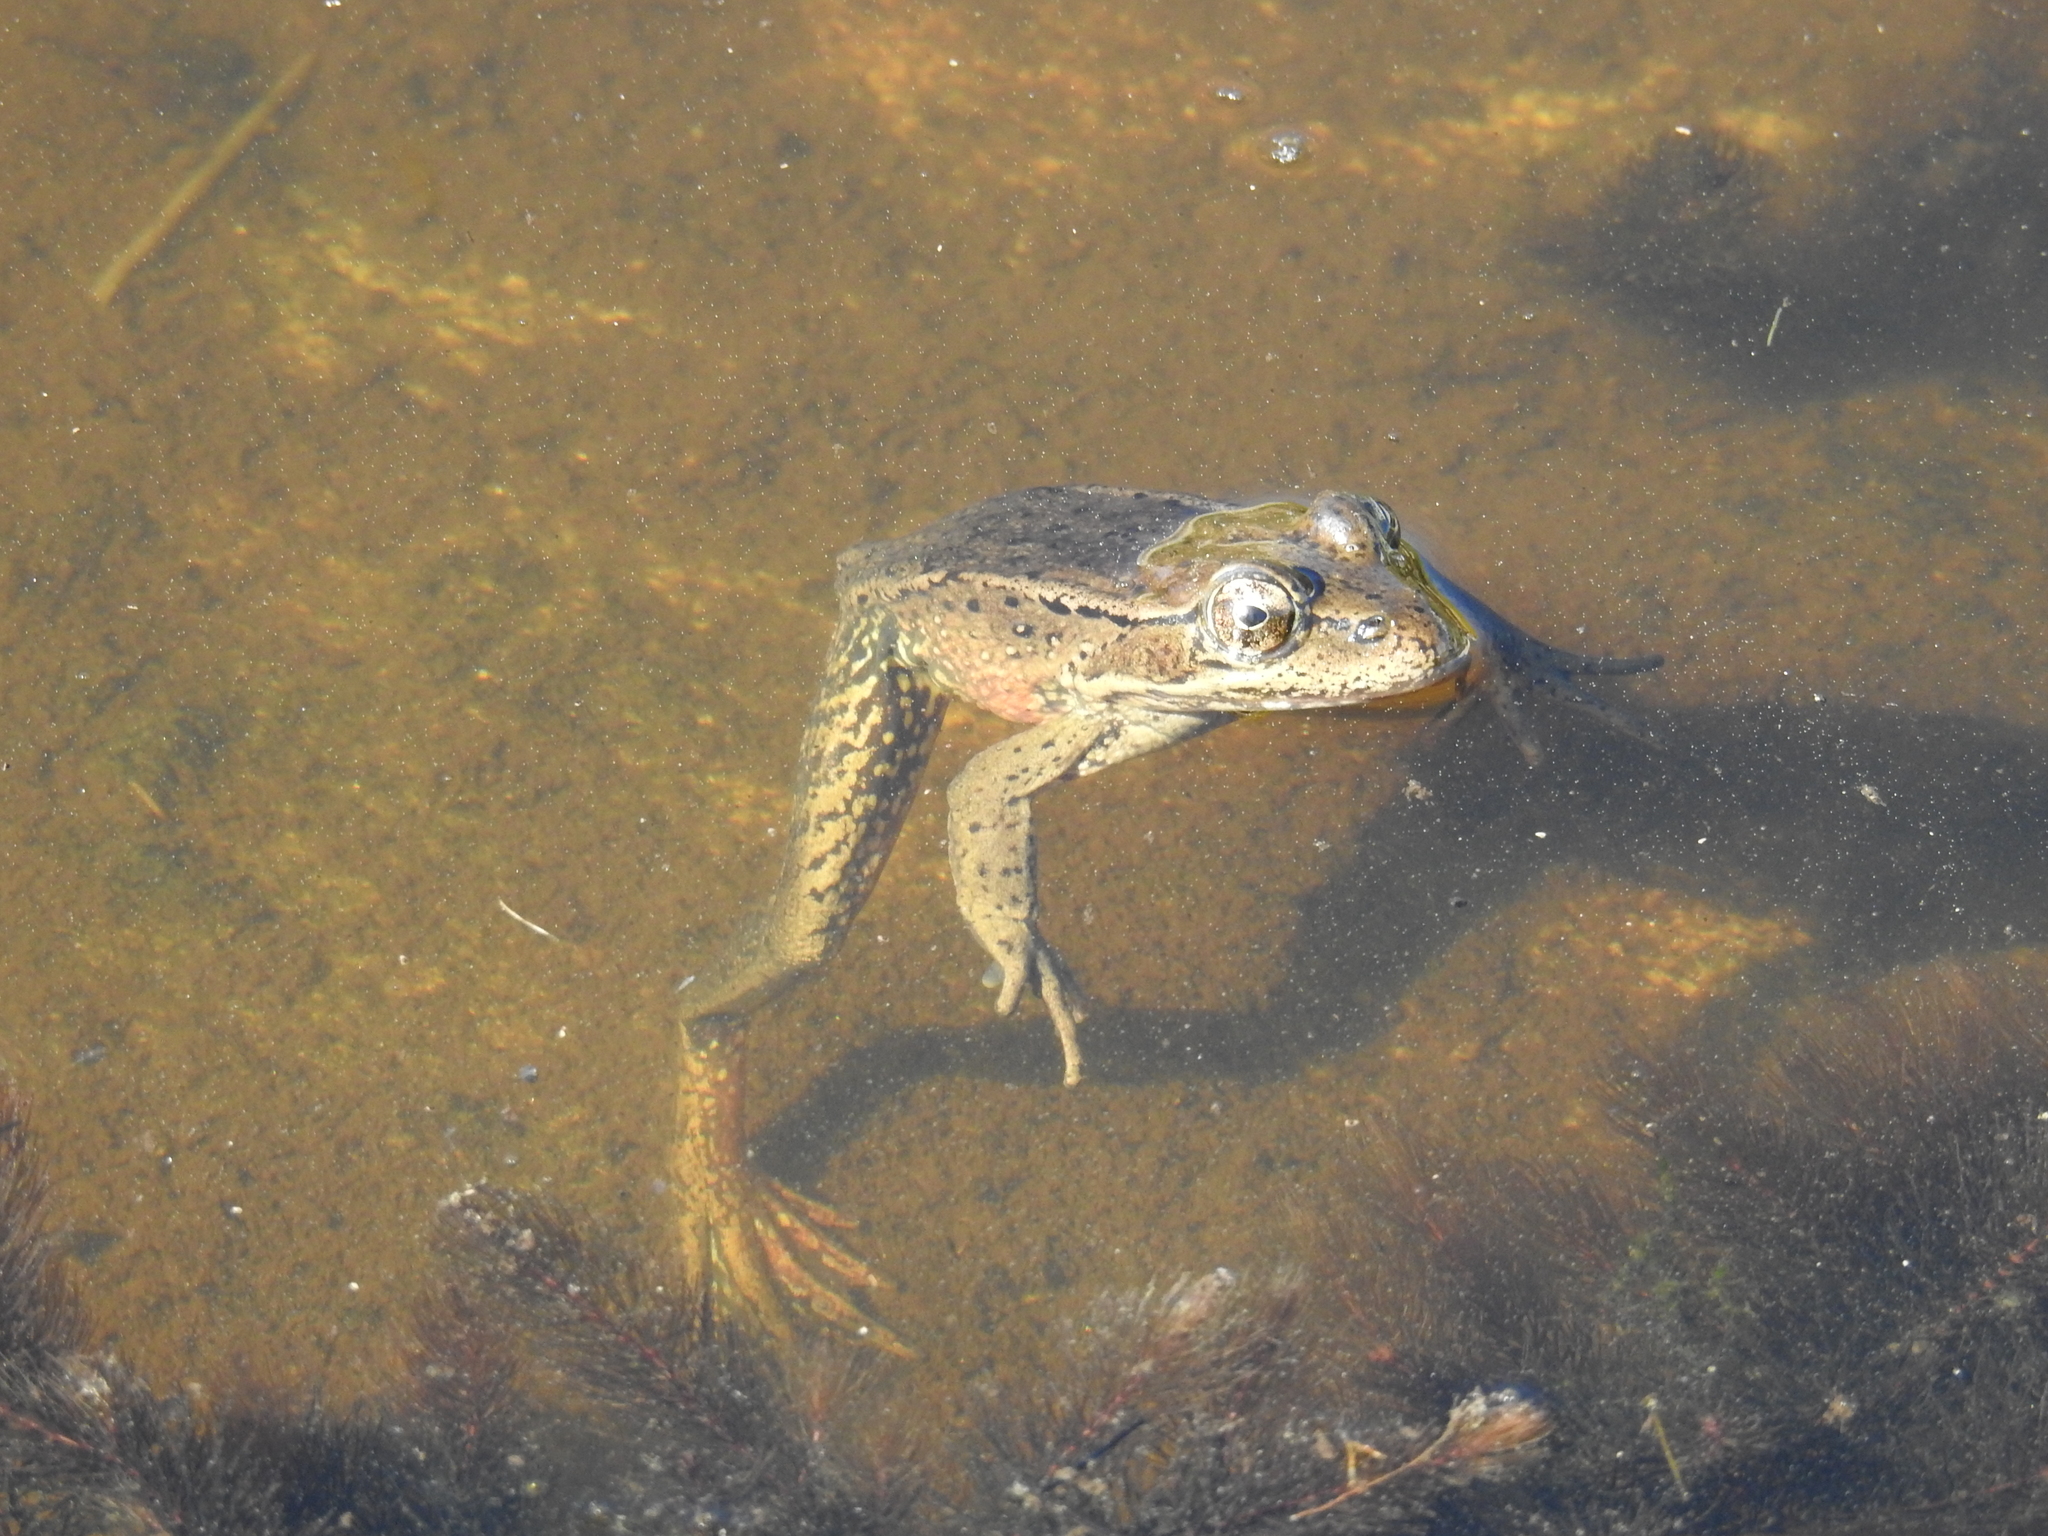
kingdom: Animalia
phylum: Chordata
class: Amphibia
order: Anura
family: Ranidae
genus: Rana
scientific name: Rana draytonii
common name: California red-legged frog
